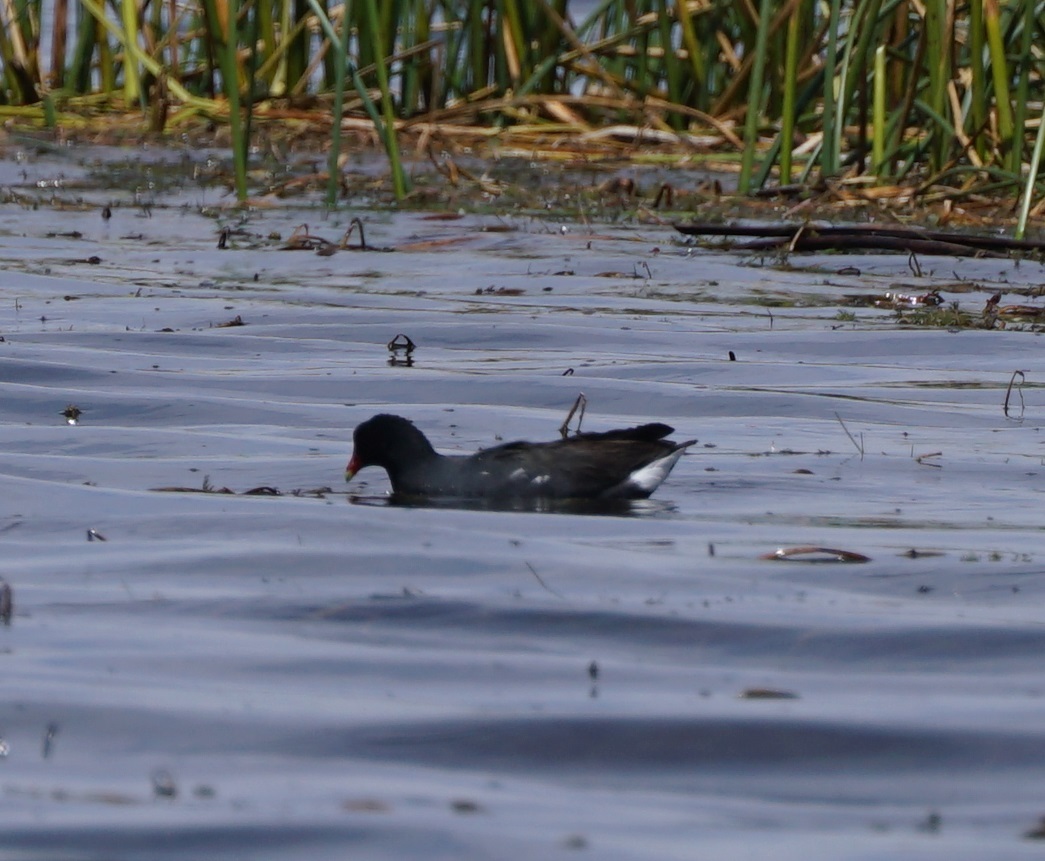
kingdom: Animalia
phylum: Chordata
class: Aves
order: Gruiformes
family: Rallidae
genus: Gallinula
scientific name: Gallinula chloropus
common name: Common moorhen
